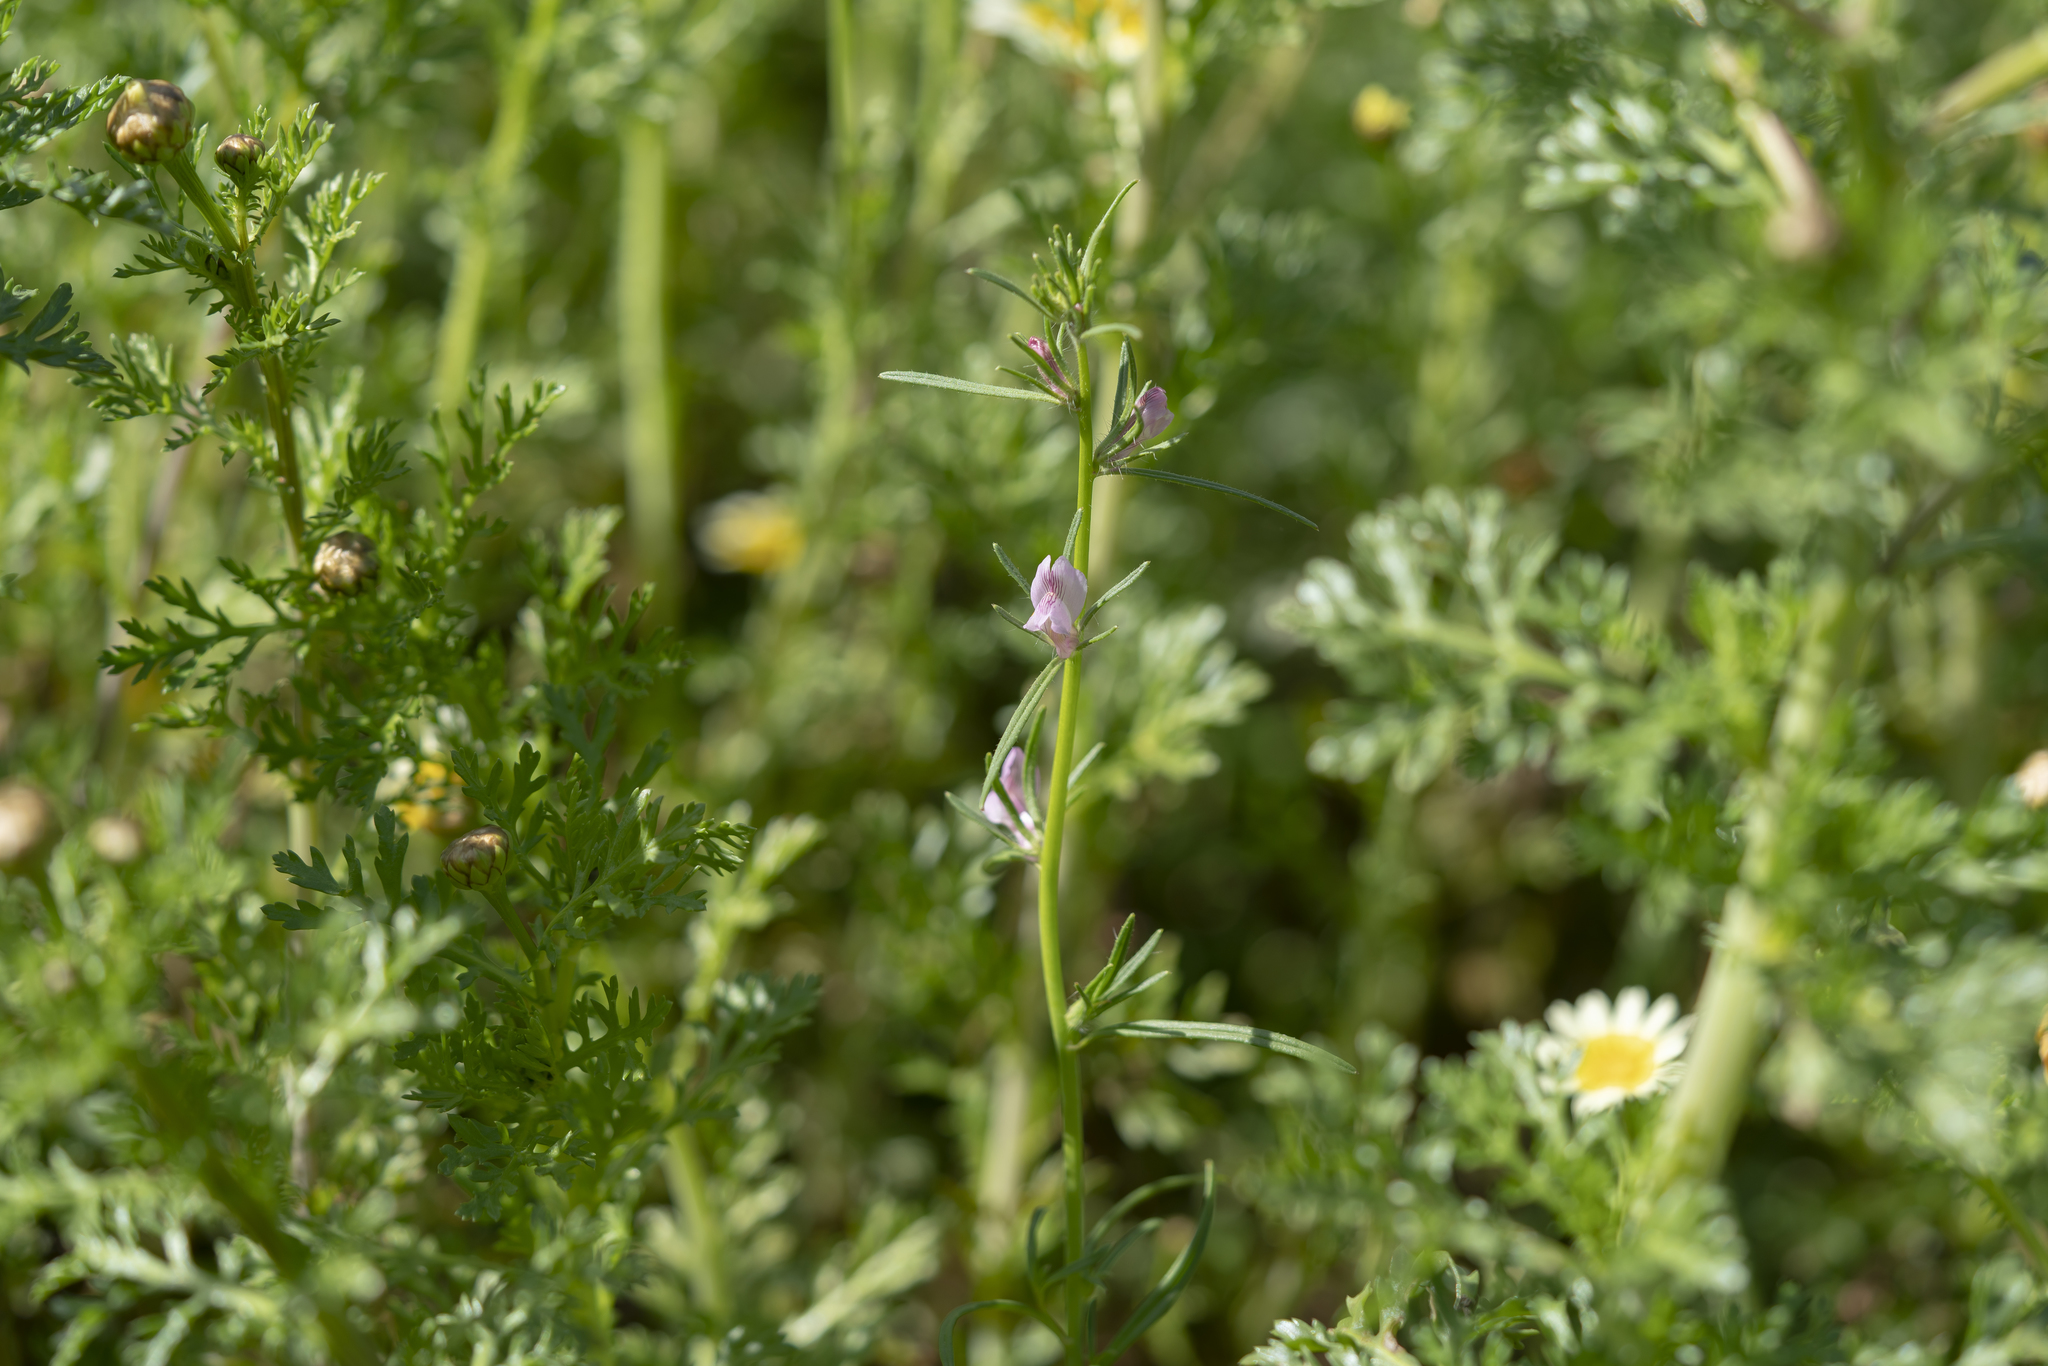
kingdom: Plantae
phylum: Tracheophyta
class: Magnoliopsida
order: Lamiales
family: Plantaginaceae
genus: Misopates
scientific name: Misopates orontium
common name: Weasel's-snout
